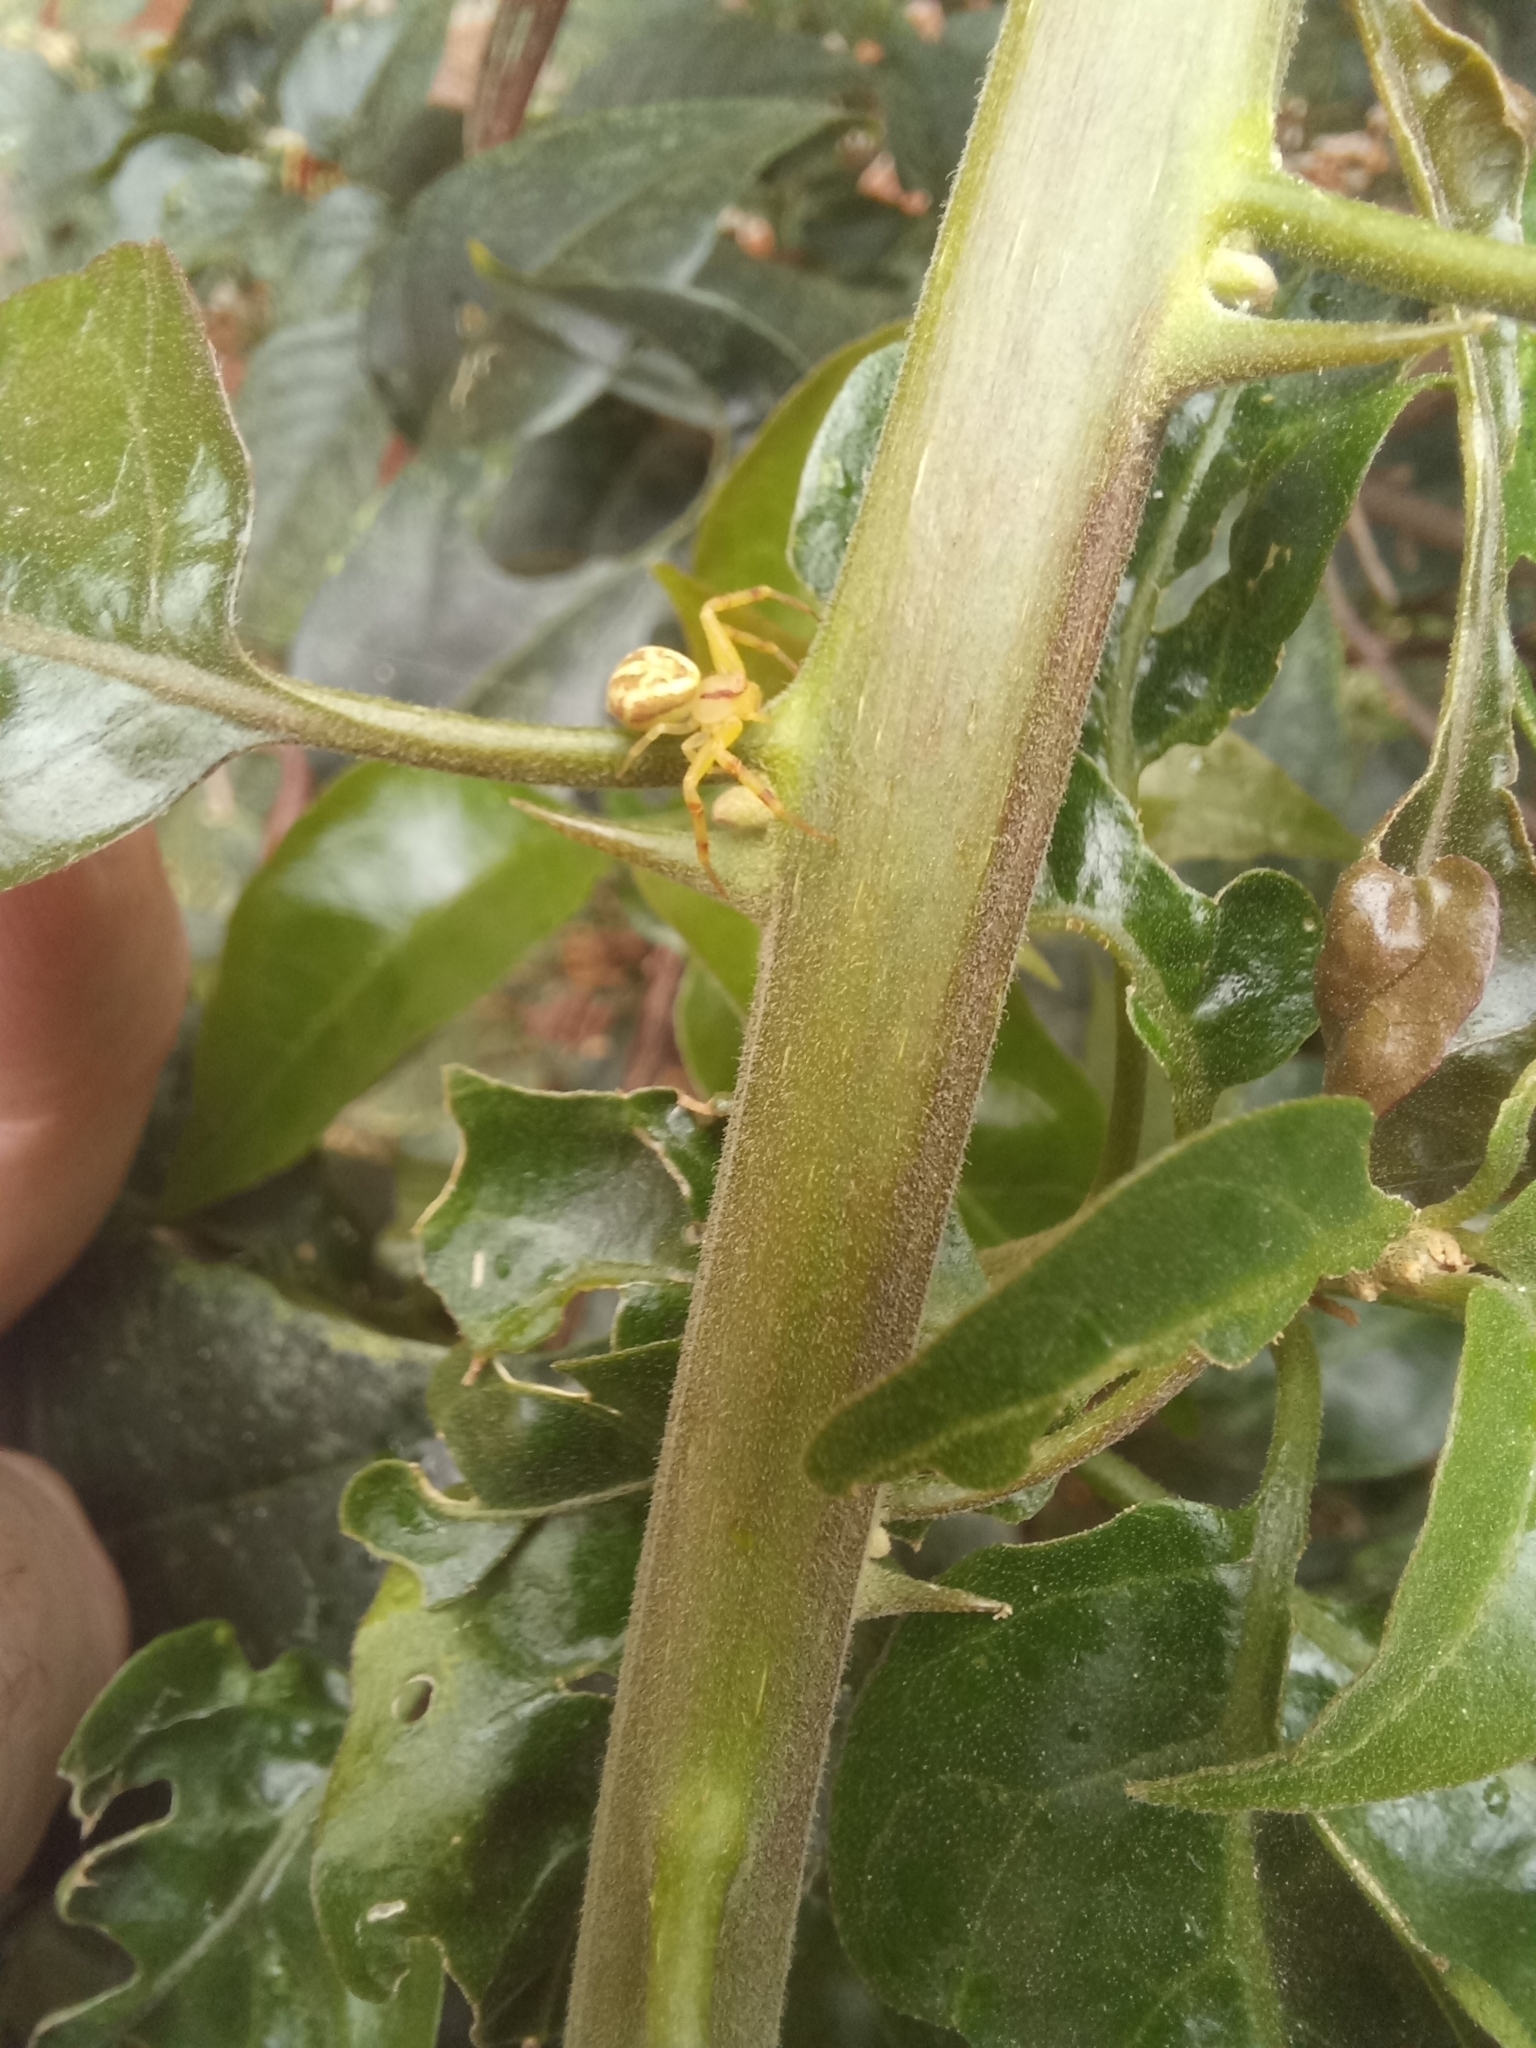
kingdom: Animalia
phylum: Arthropoda
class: Arachnida
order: Araneae
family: Thomisidae
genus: Misumenops
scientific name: Misumenops
